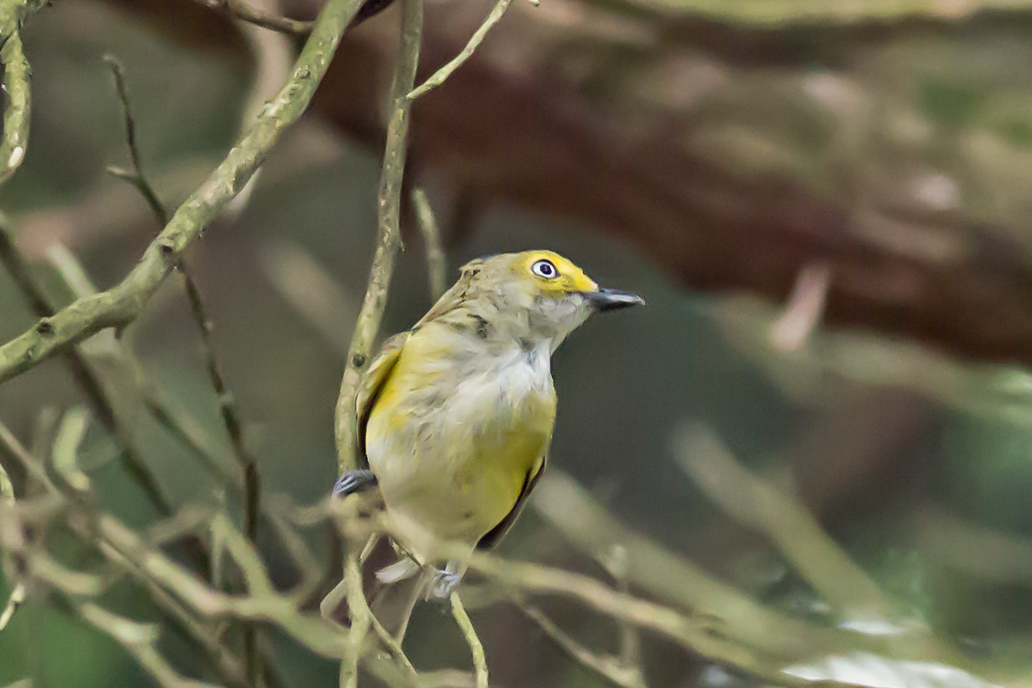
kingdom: Animalia
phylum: Chordata
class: Aves
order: Passeriformes
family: Vireonidae
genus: Vireo
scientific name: Vireo griseus
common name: White-eyed vireo
